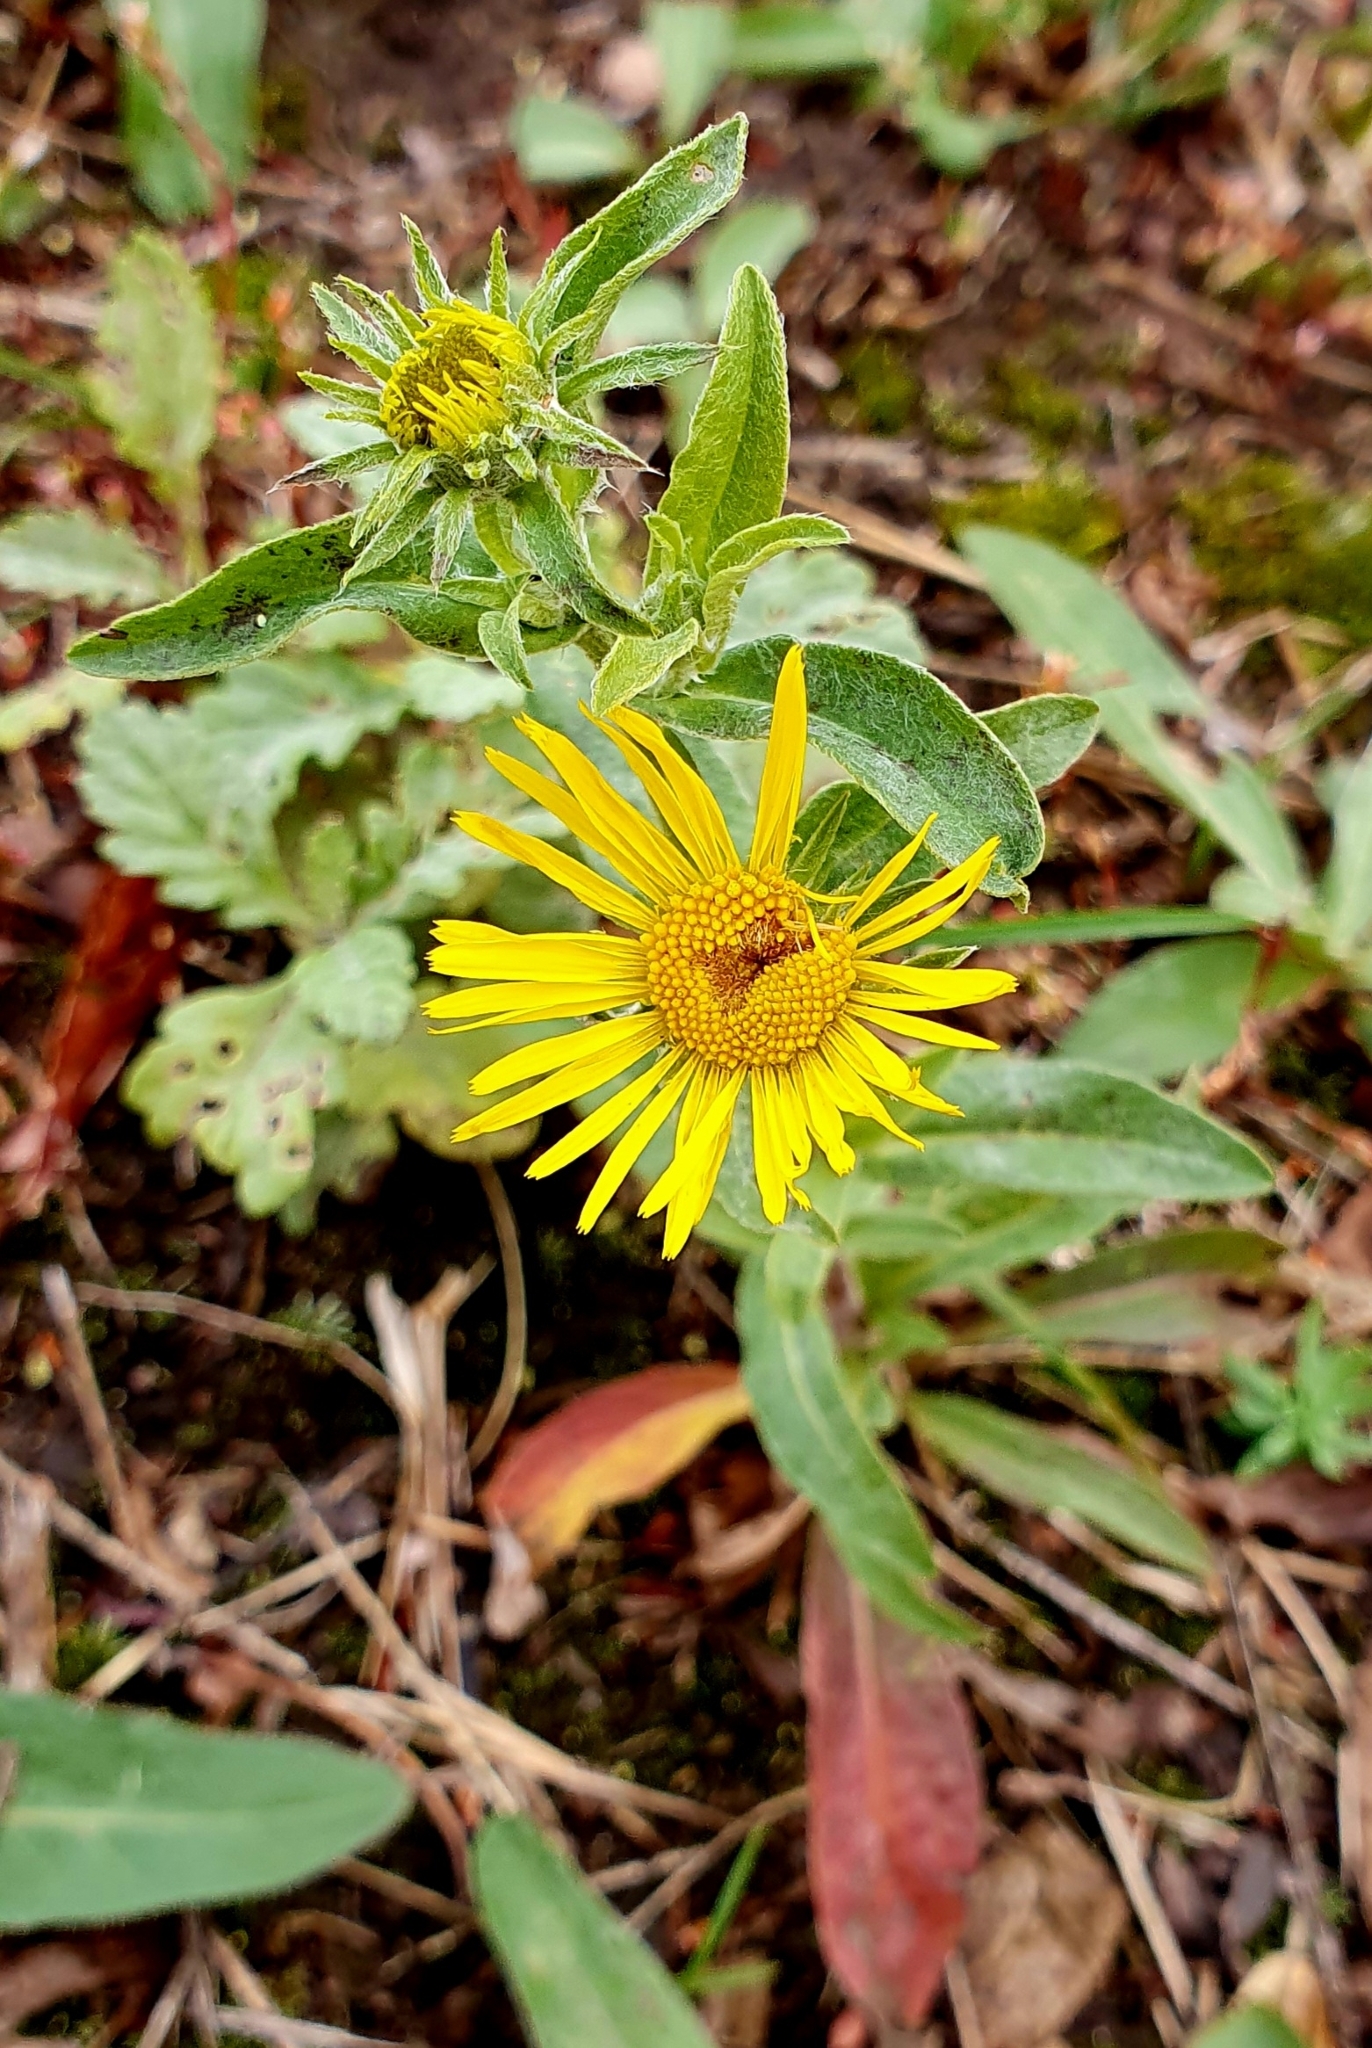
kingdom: Plantae
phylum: Tracheophyta
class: Magnoliopsida
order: Asterales
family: Asteraceae
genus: Pentanema
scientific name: Pentanema britannicum
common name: British elecampane
